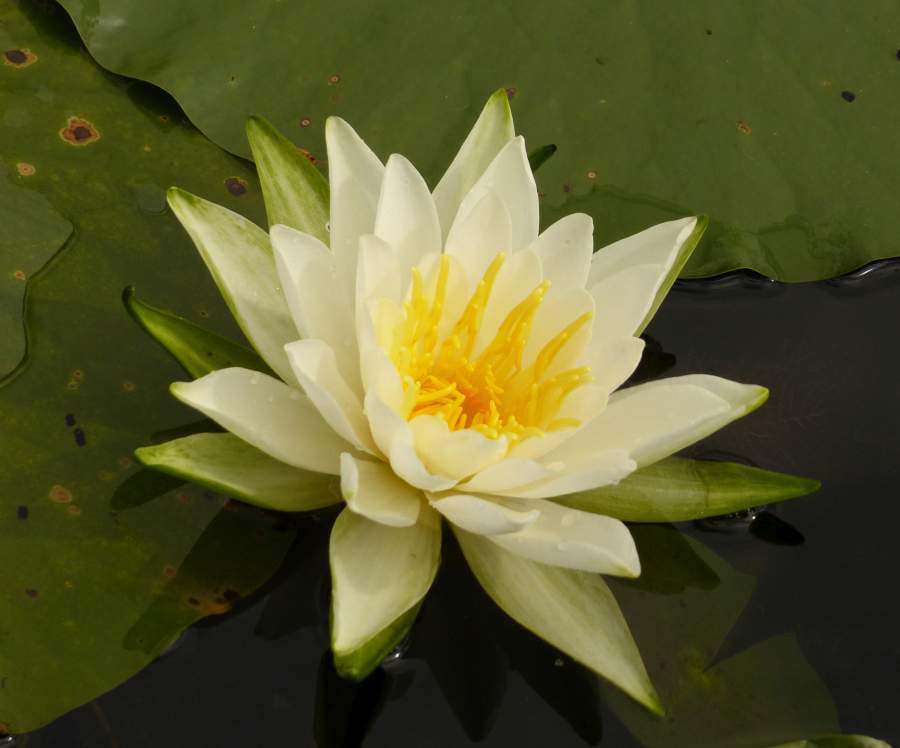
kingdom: Plantae
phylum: Tracheophyta
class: Magnoliopsida
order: Nymphaeales
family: Nymphaeaceae
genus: Nymphaea
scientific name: Nymphaea odorata
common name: Fragrant water-lily
